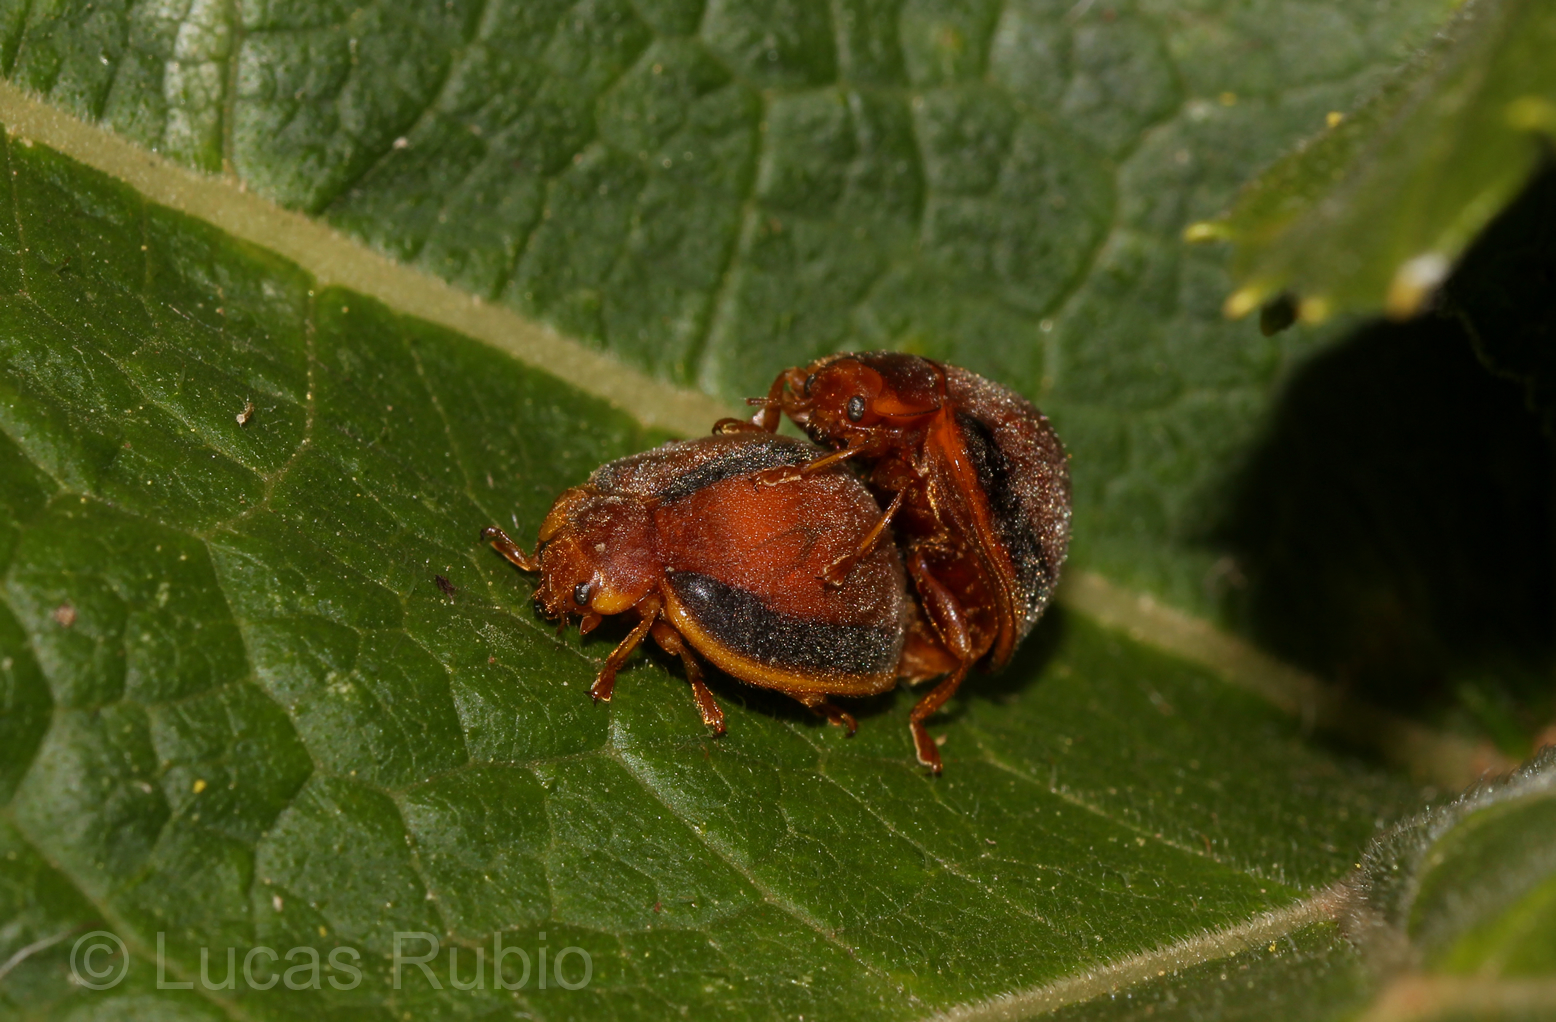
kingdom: Animalia
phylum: Arthropoda
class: Insecta
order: Coleoptera
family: Coccinellidae
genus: Epilachna
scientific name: Epilachna cacica
